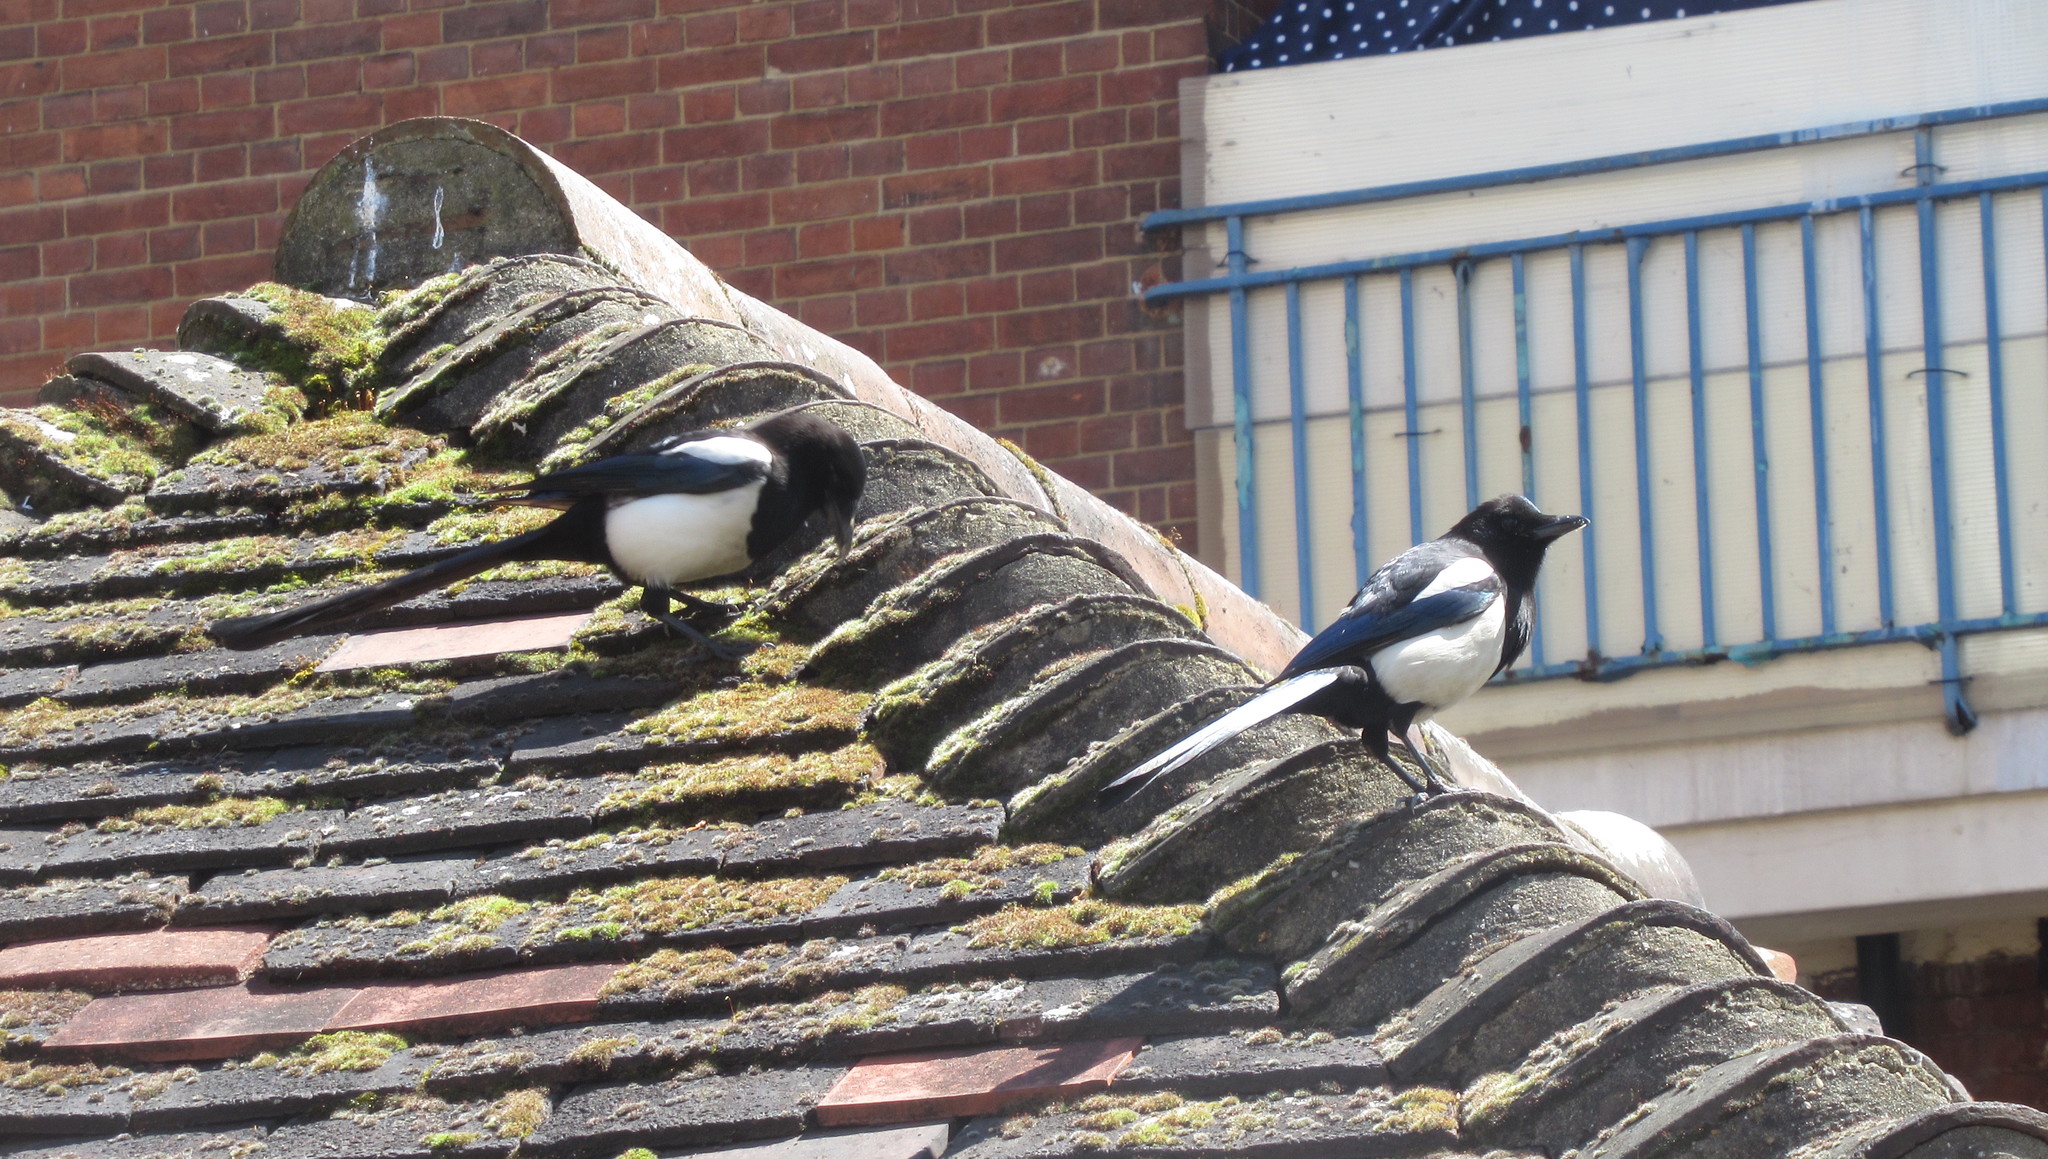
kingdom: Animalia
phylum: Chordata
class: Aves
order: Passeriformes
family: Corvidae
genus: Pica
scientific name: Pica pica
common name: Eurasian magpie
